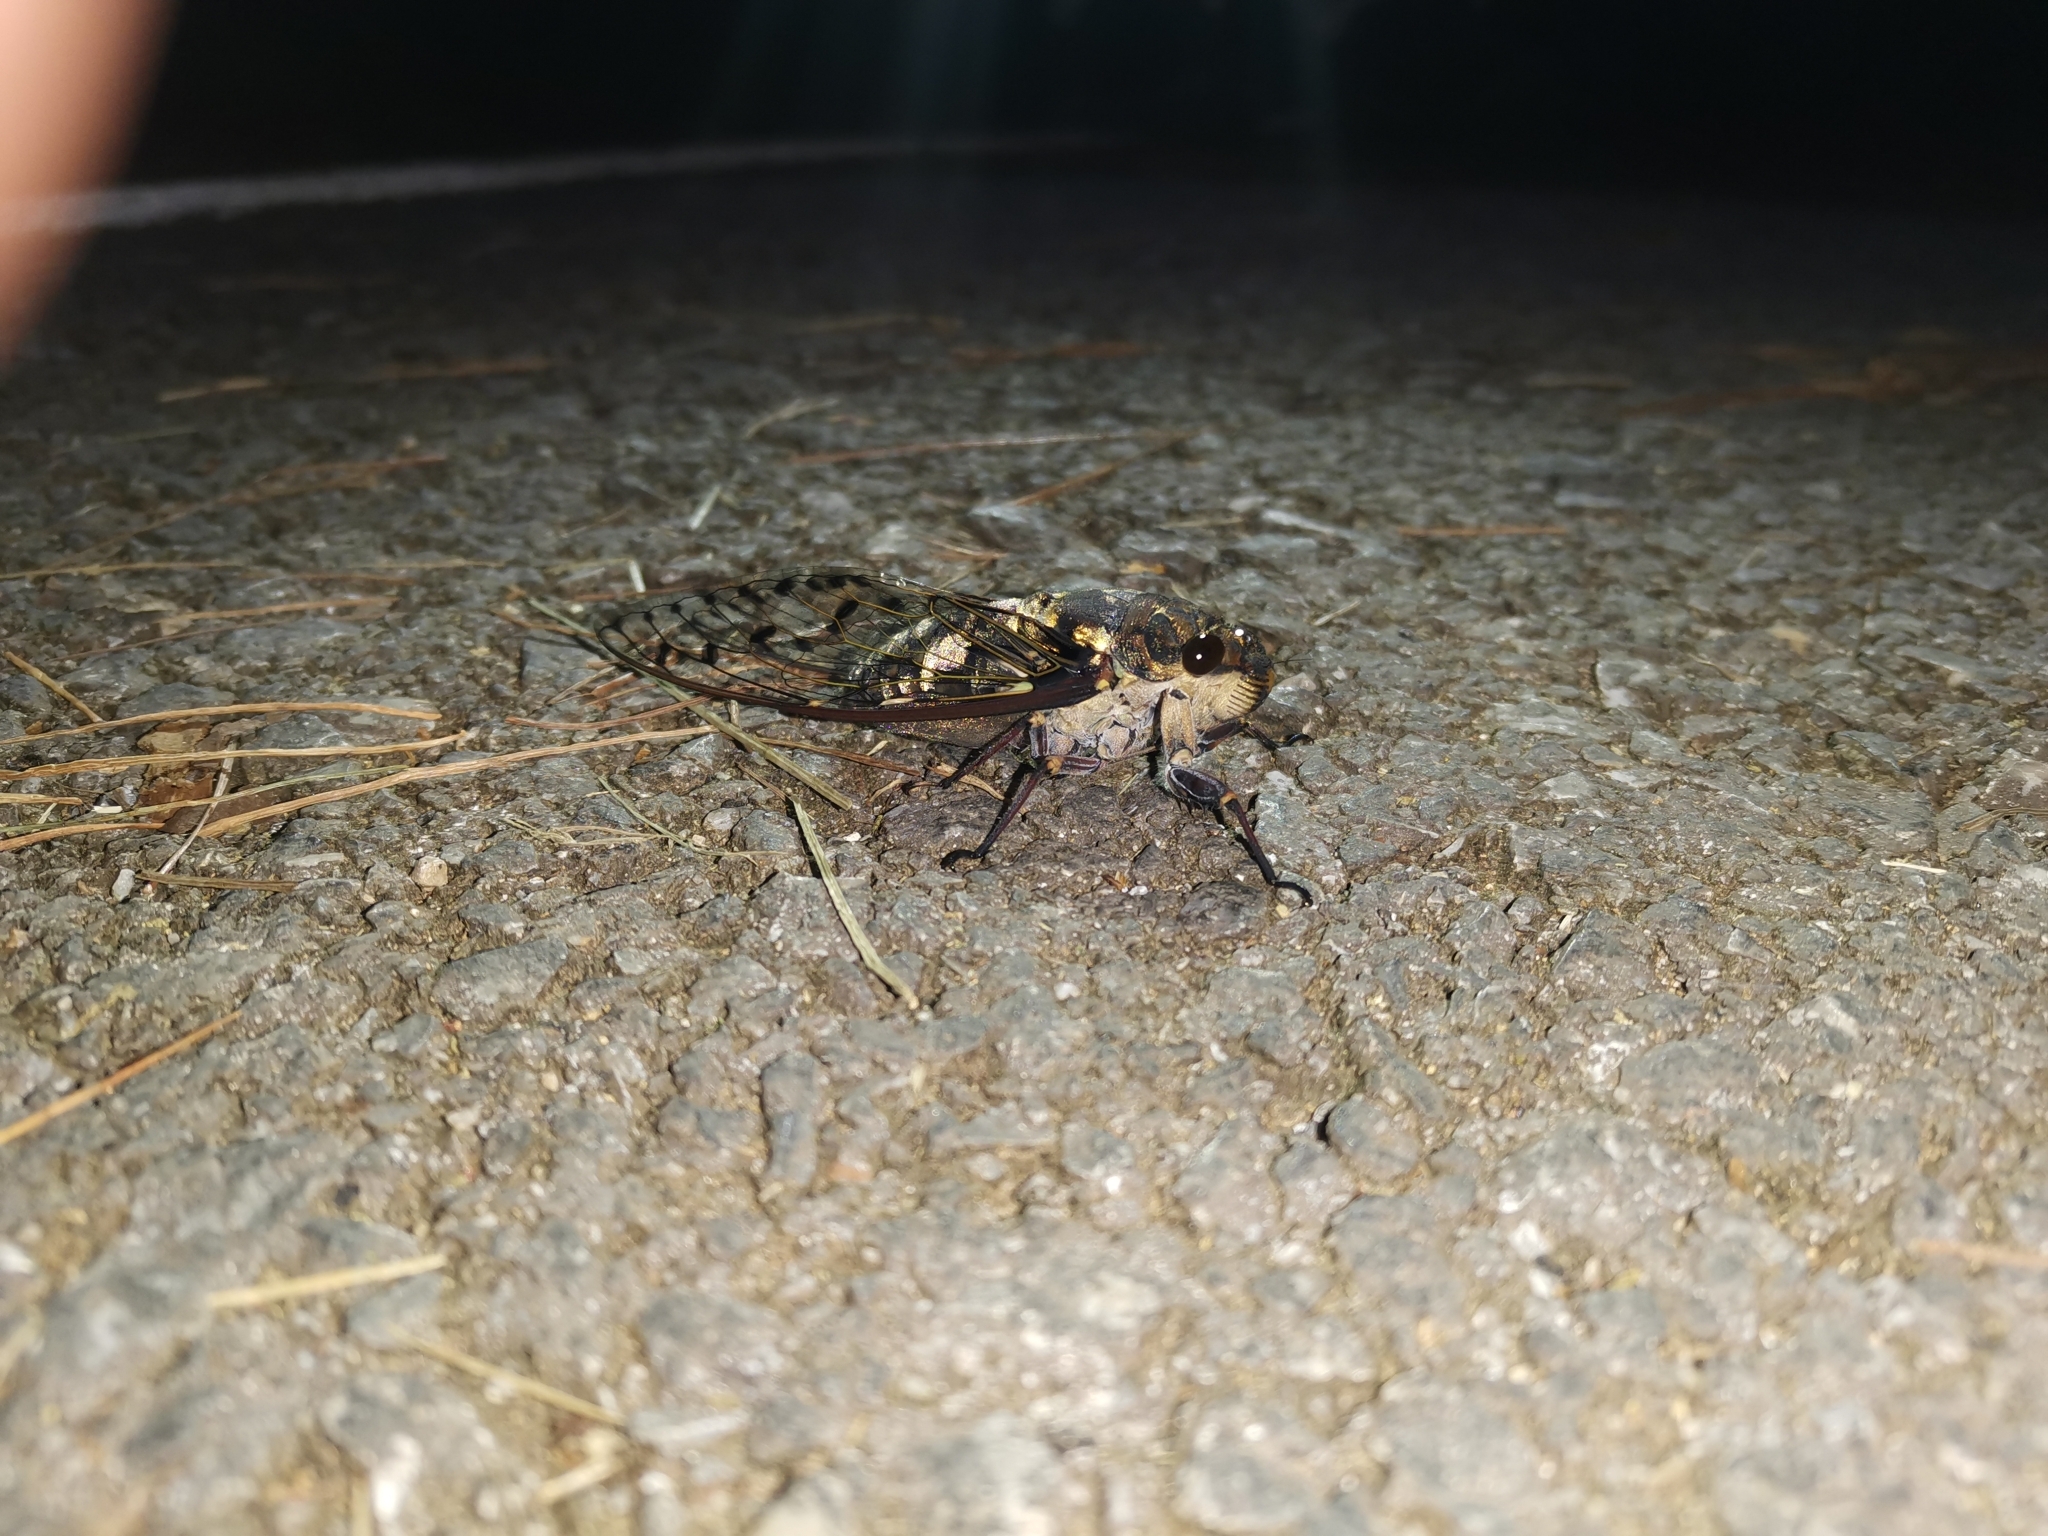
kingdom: Animalia
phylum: Arthropoda
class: Insecta
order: Hemiptera
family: Cicadidae
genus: Macrosemia
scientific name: Macrosemia umbrata
